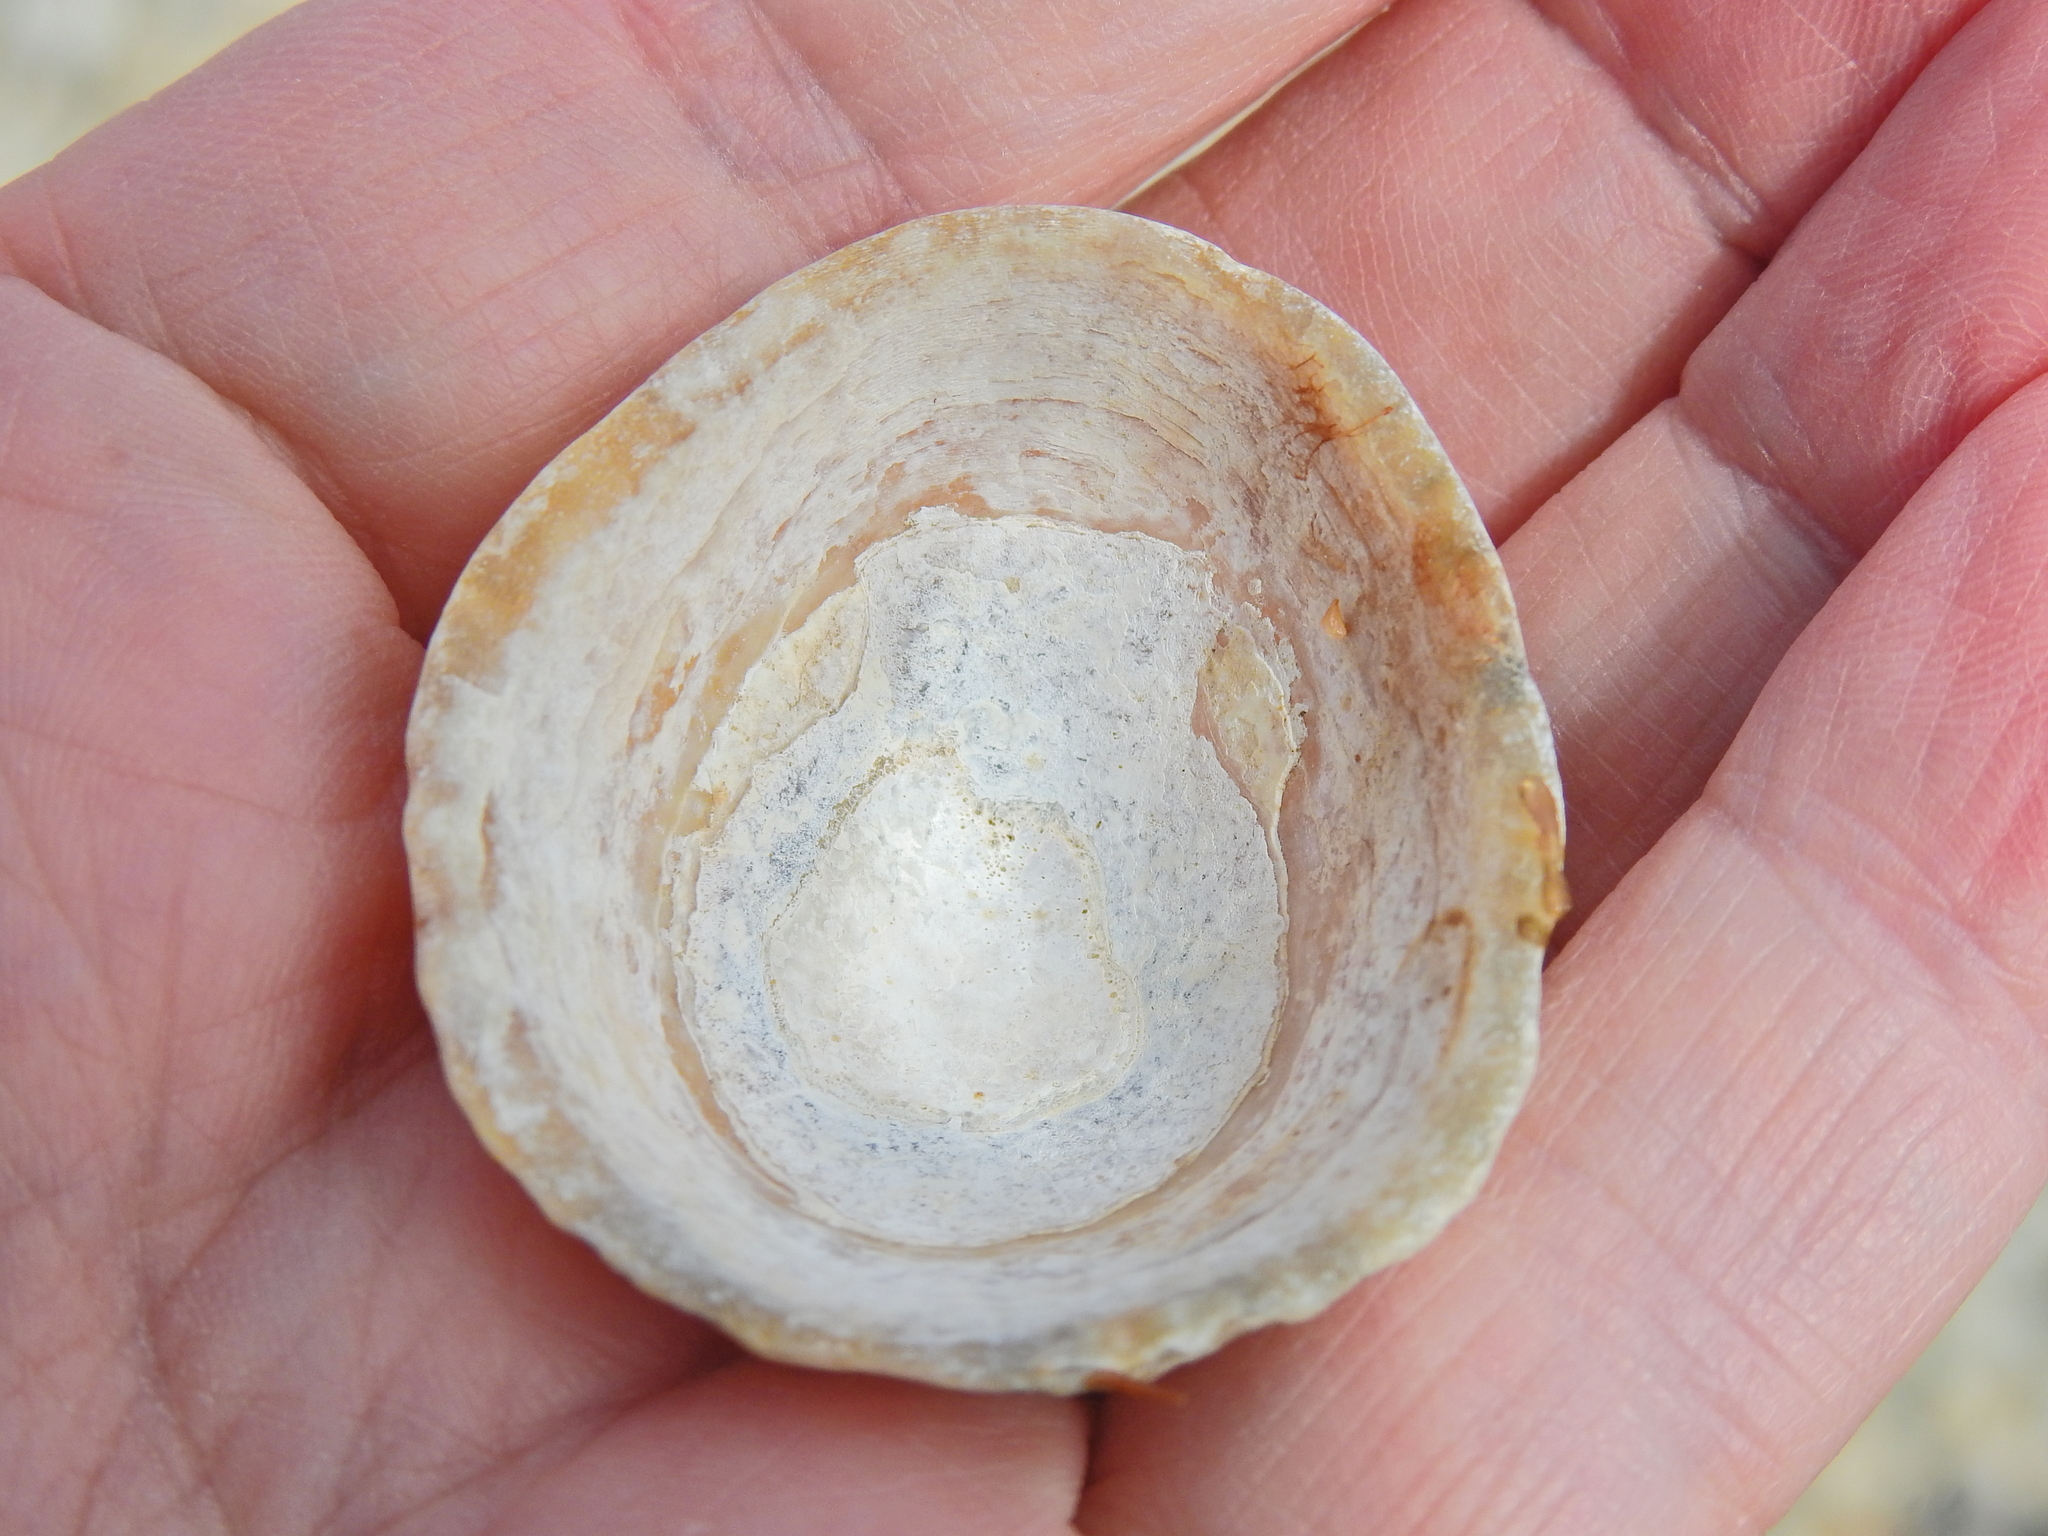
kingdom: Animalia
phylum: Mollusca
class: Gastropoda
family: Patellidae
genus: Patella
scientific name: Patella vulgata
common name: Common limpet
